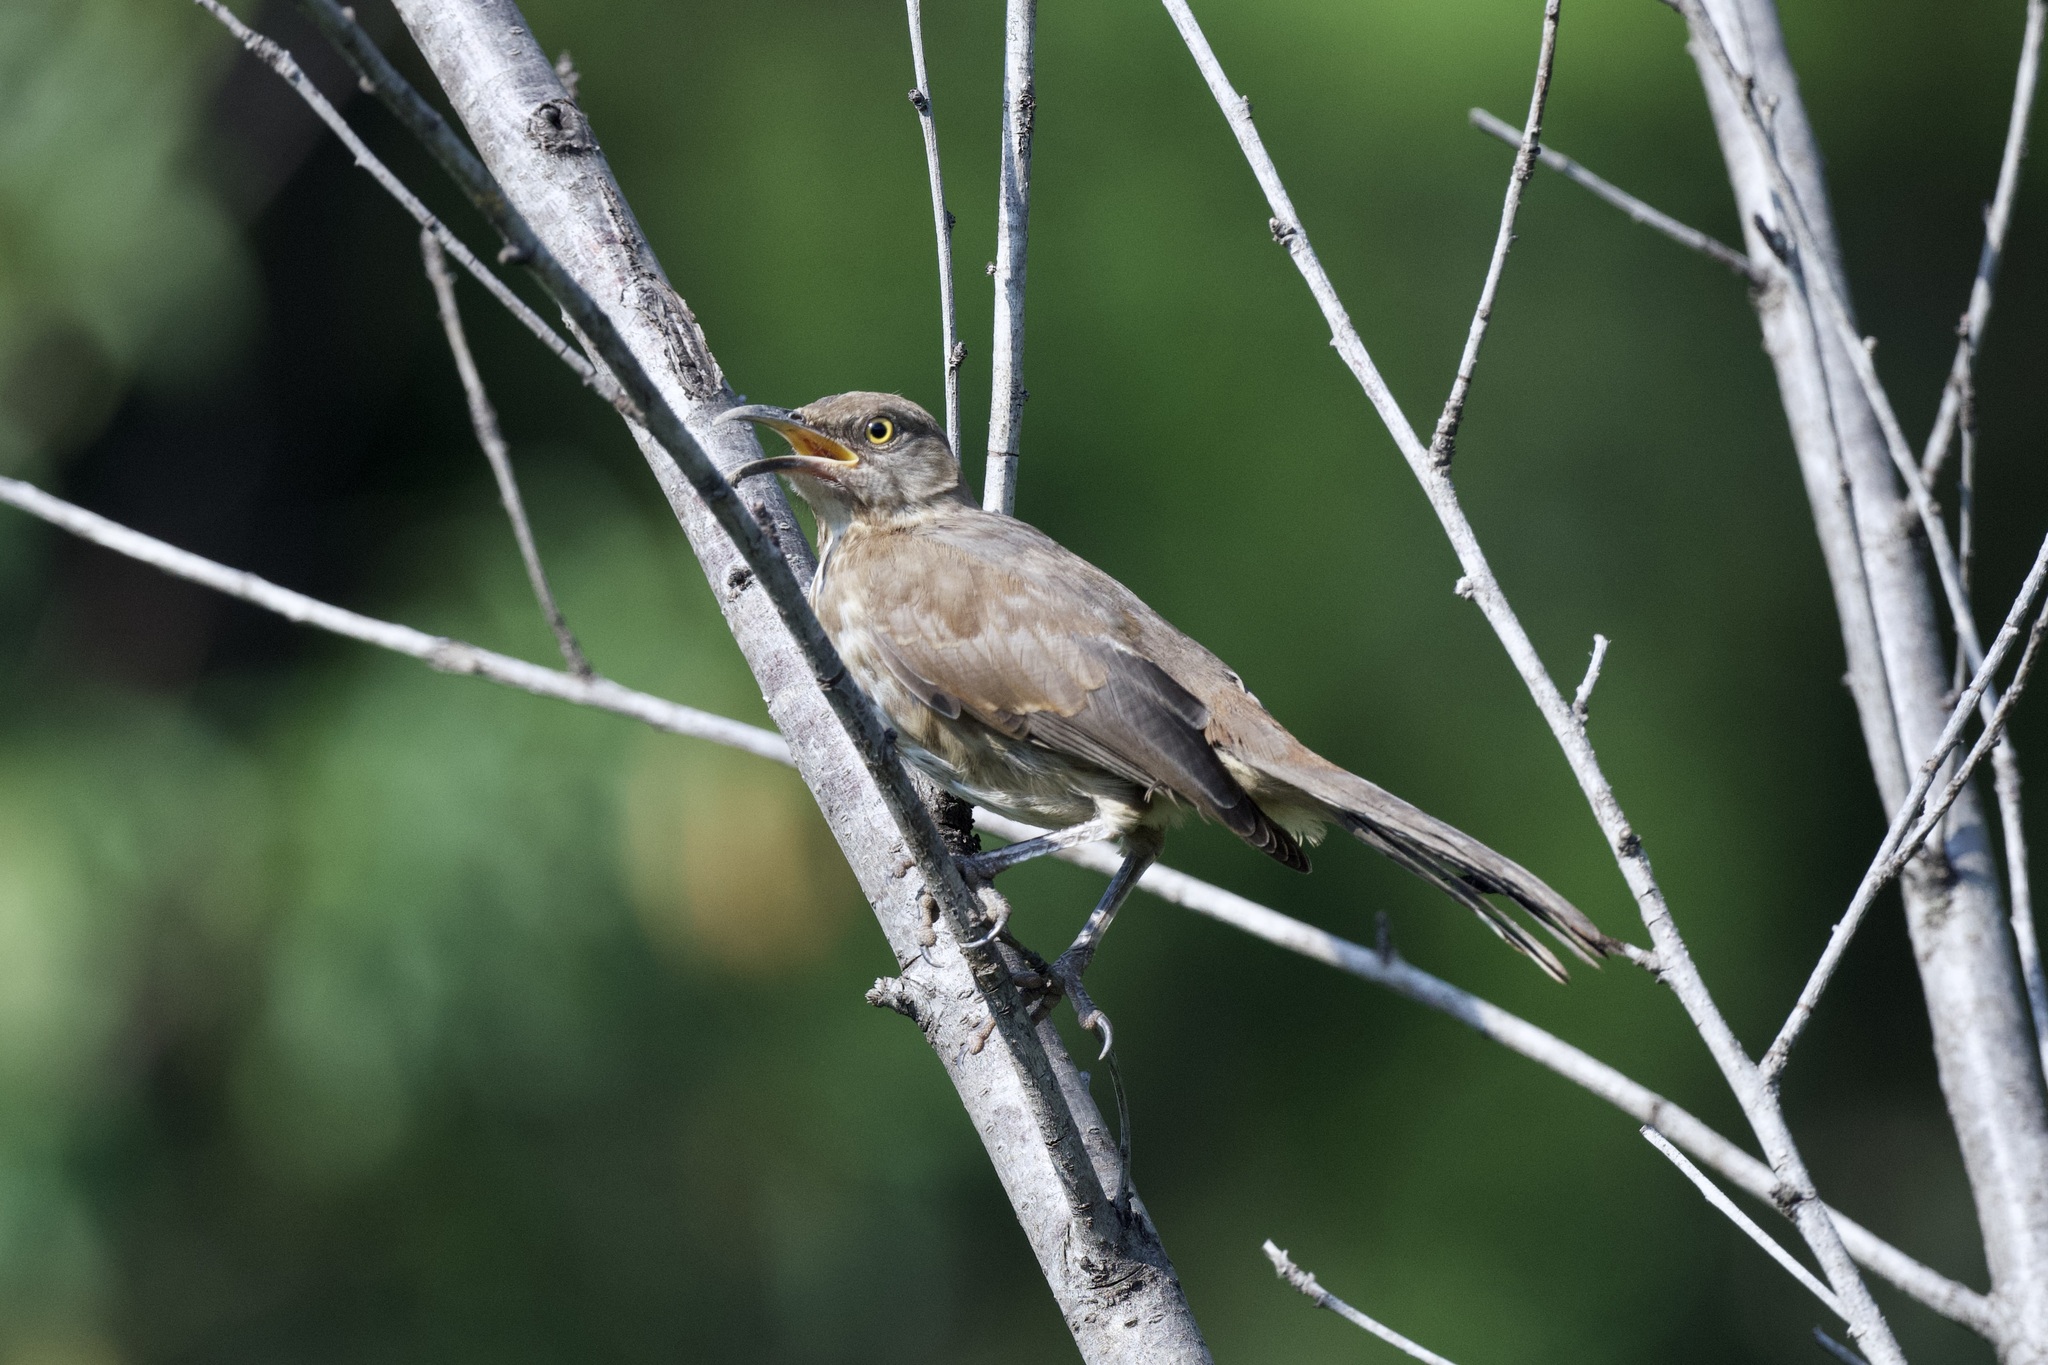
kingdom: Animalia
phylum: Chordata
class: Aves
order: Passeriformes
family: Mimidae
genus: Toxostoma
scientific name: Toxostoma curvirostre
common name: Curve-billed thrasher
